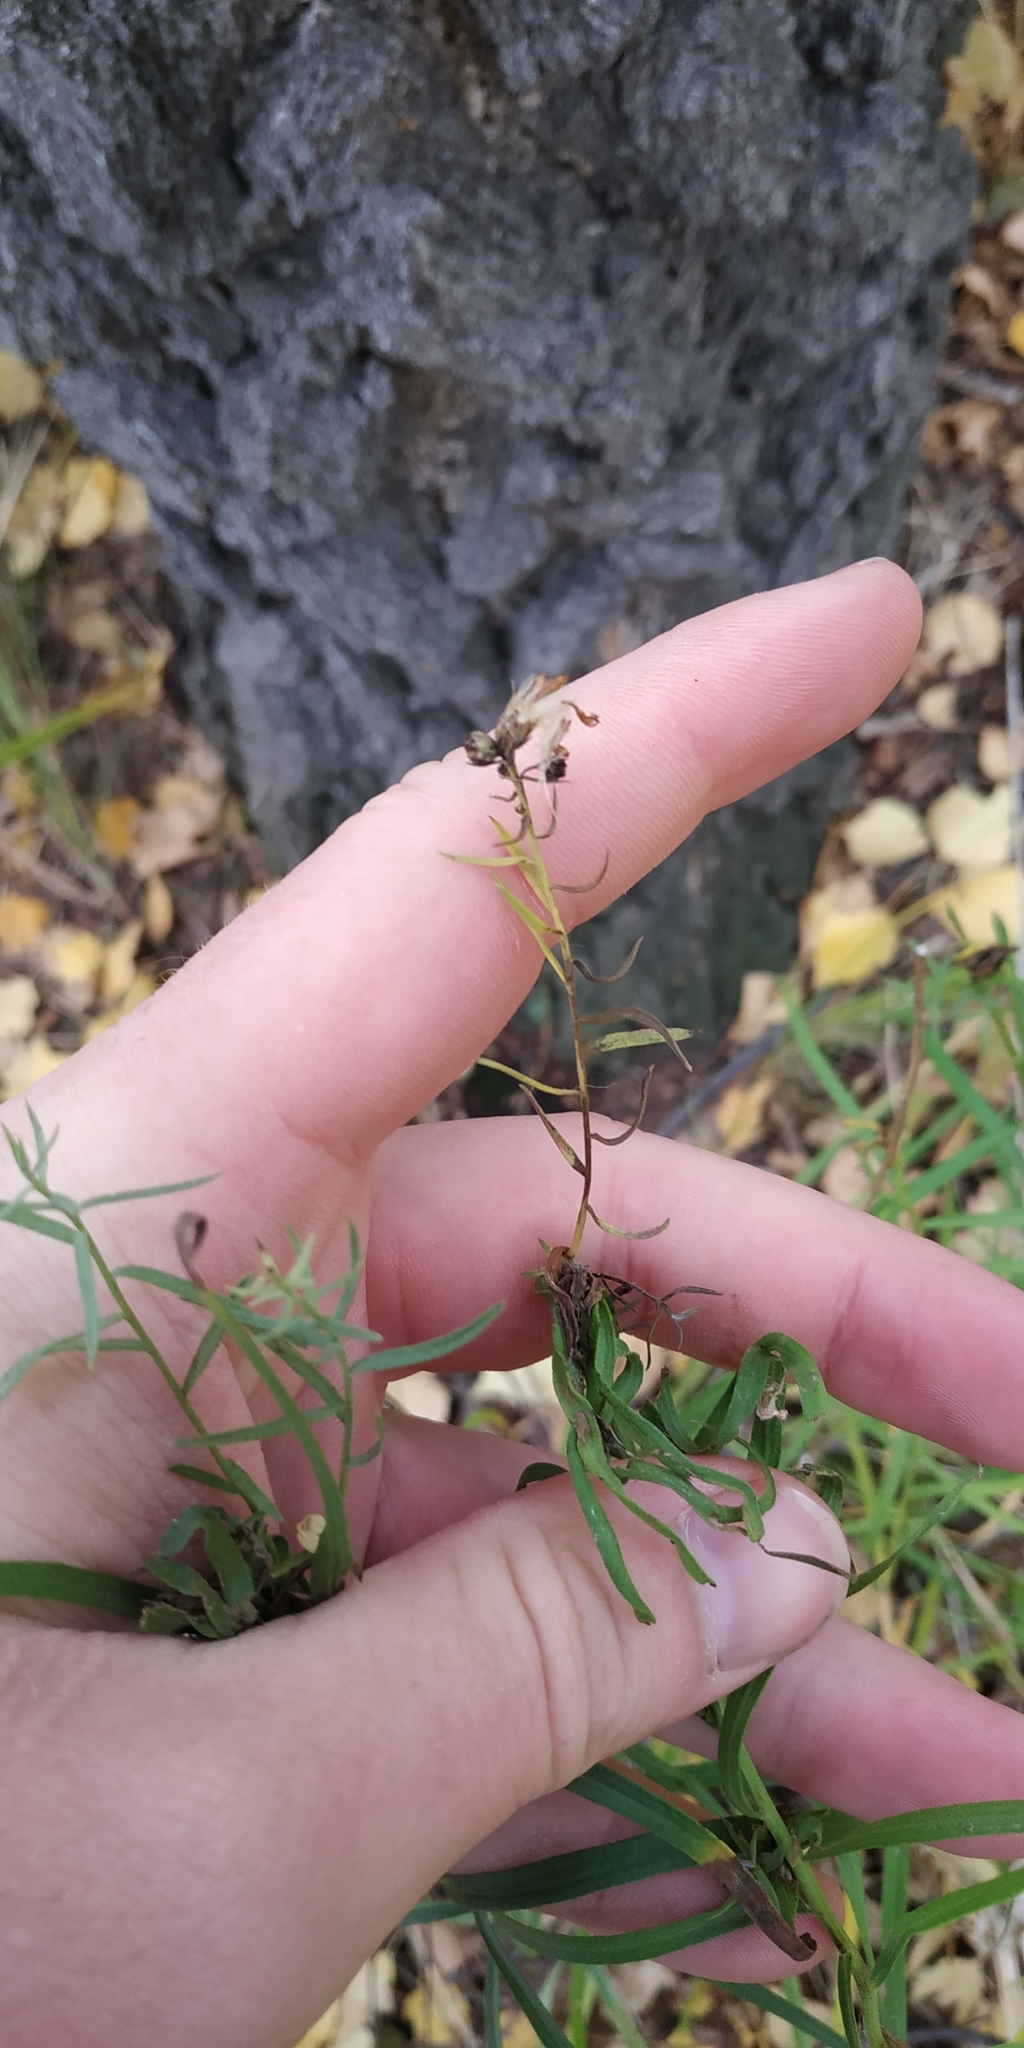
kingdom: Plantae
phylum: Tracheophyta
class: Magnoliopsida
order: Asterales
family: Asteraceae
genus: Hieracium
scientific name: Hieracium umbellatum
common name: Northern hawkweed
